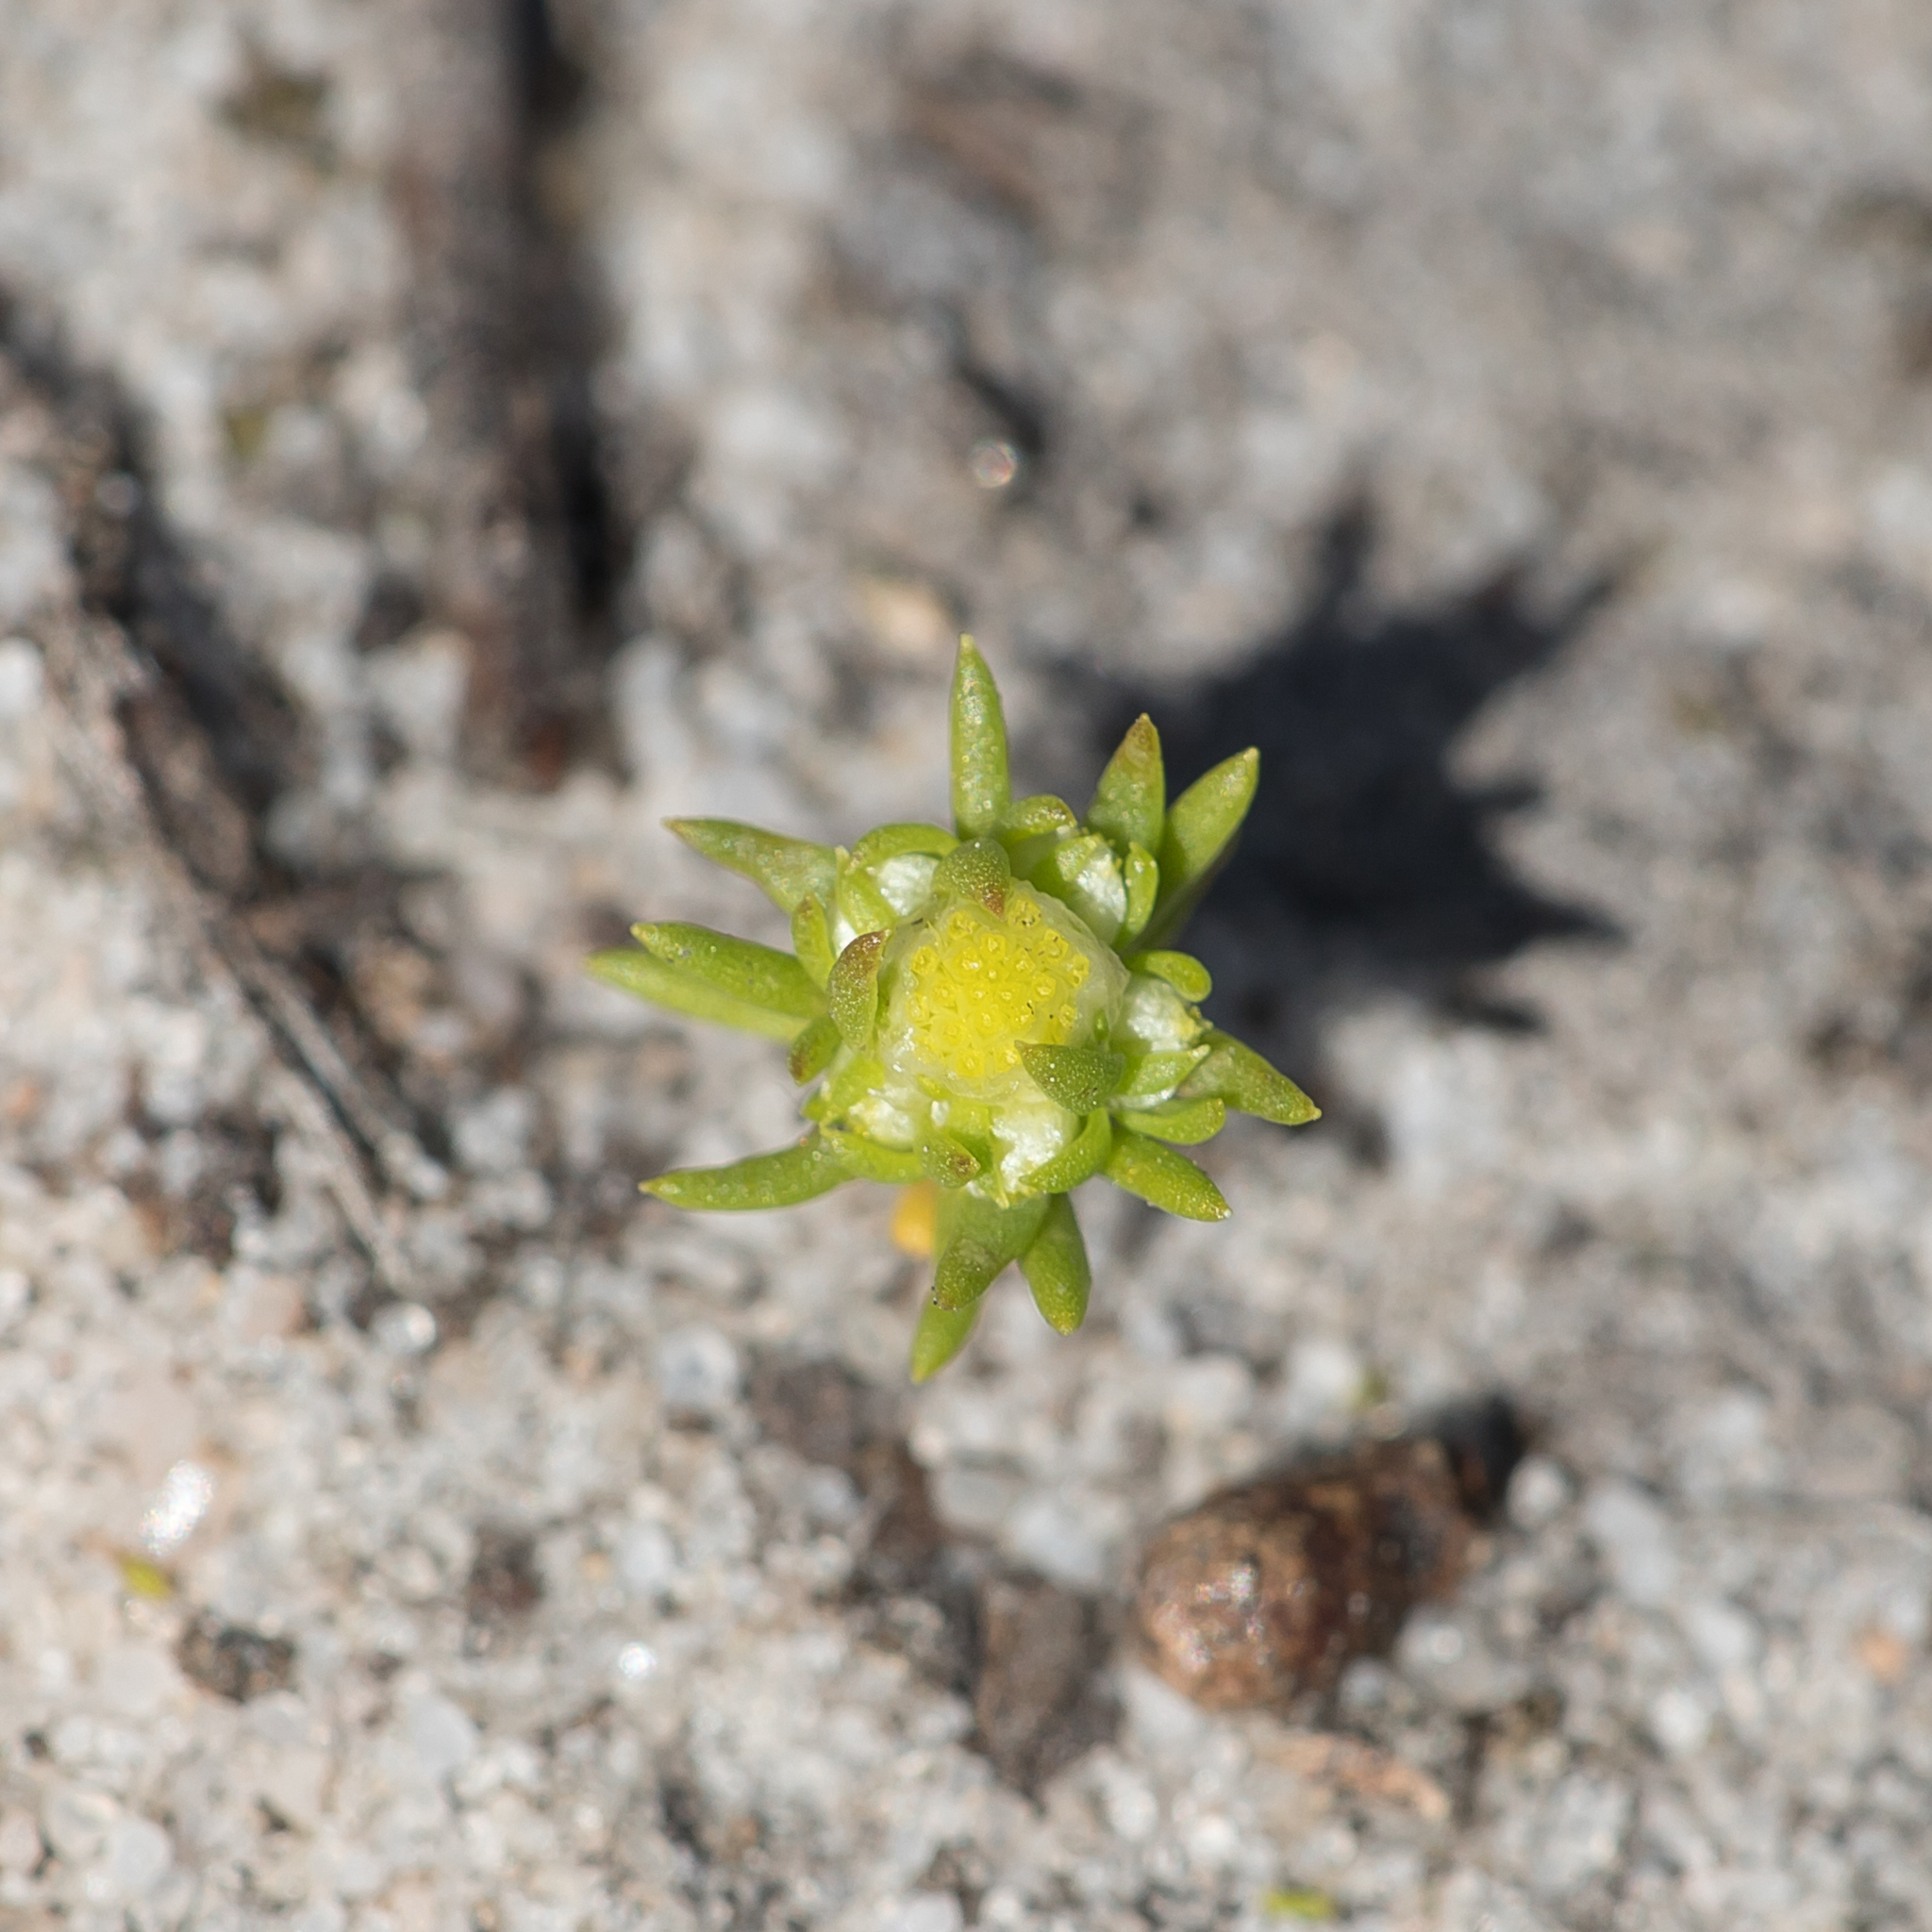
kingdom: Plantae
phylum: Tracheophyta
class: Magnoliopsida
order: Asterales
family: Asteraceae
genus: Siloxerus
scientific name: Siloxerus multiflorus
